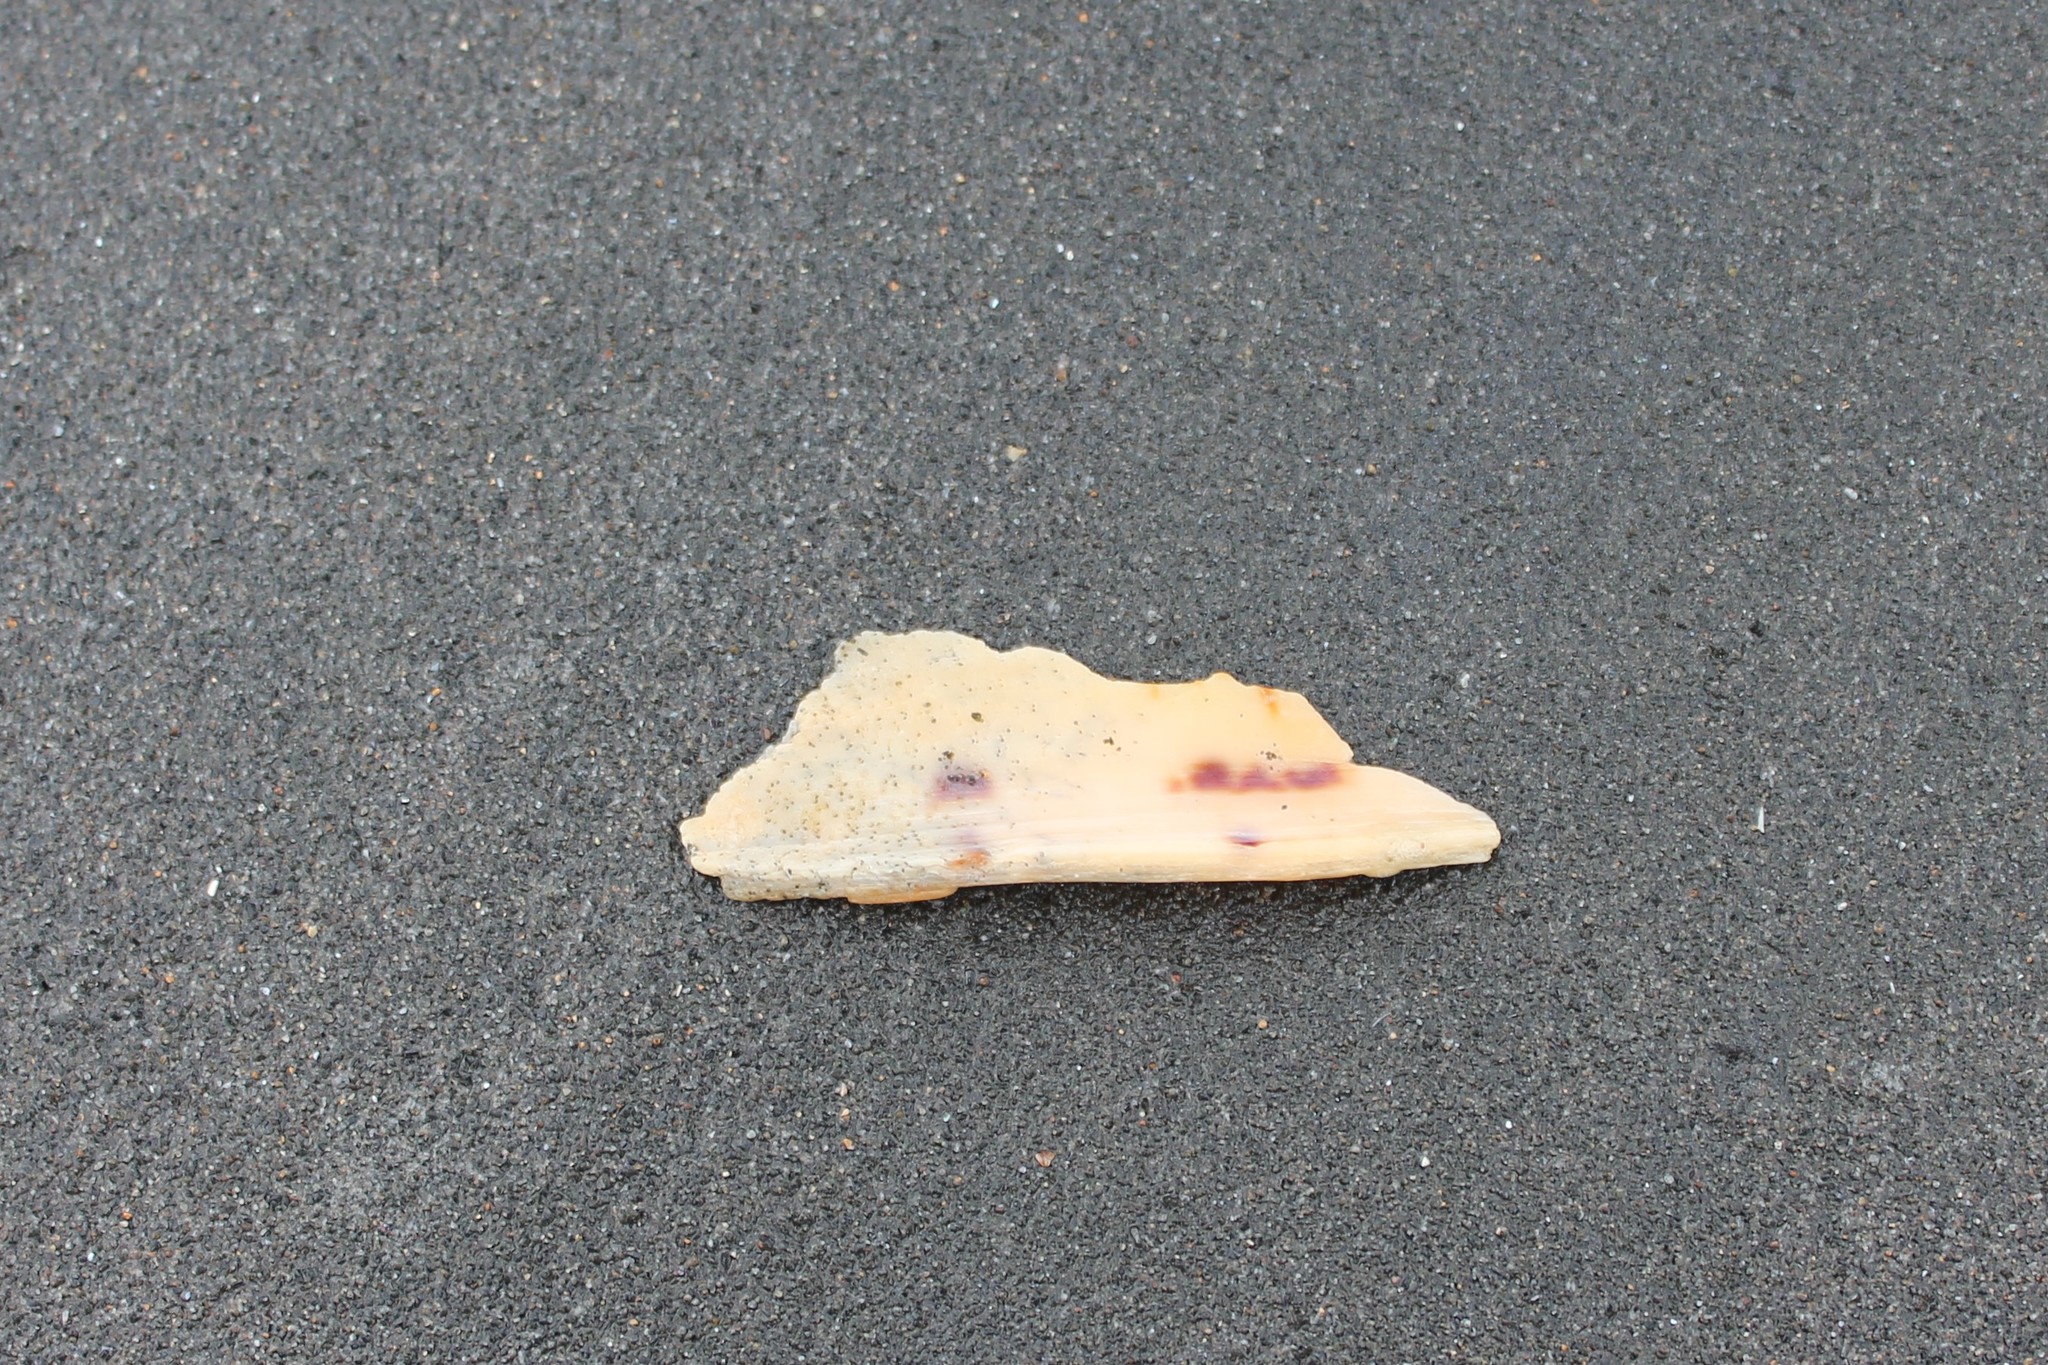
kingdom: Animalia
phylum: Mollusca
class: Gastropoda
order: Neogastropoda
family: Volutidae
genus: Alcithoe
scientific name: Alcithoe arabica
